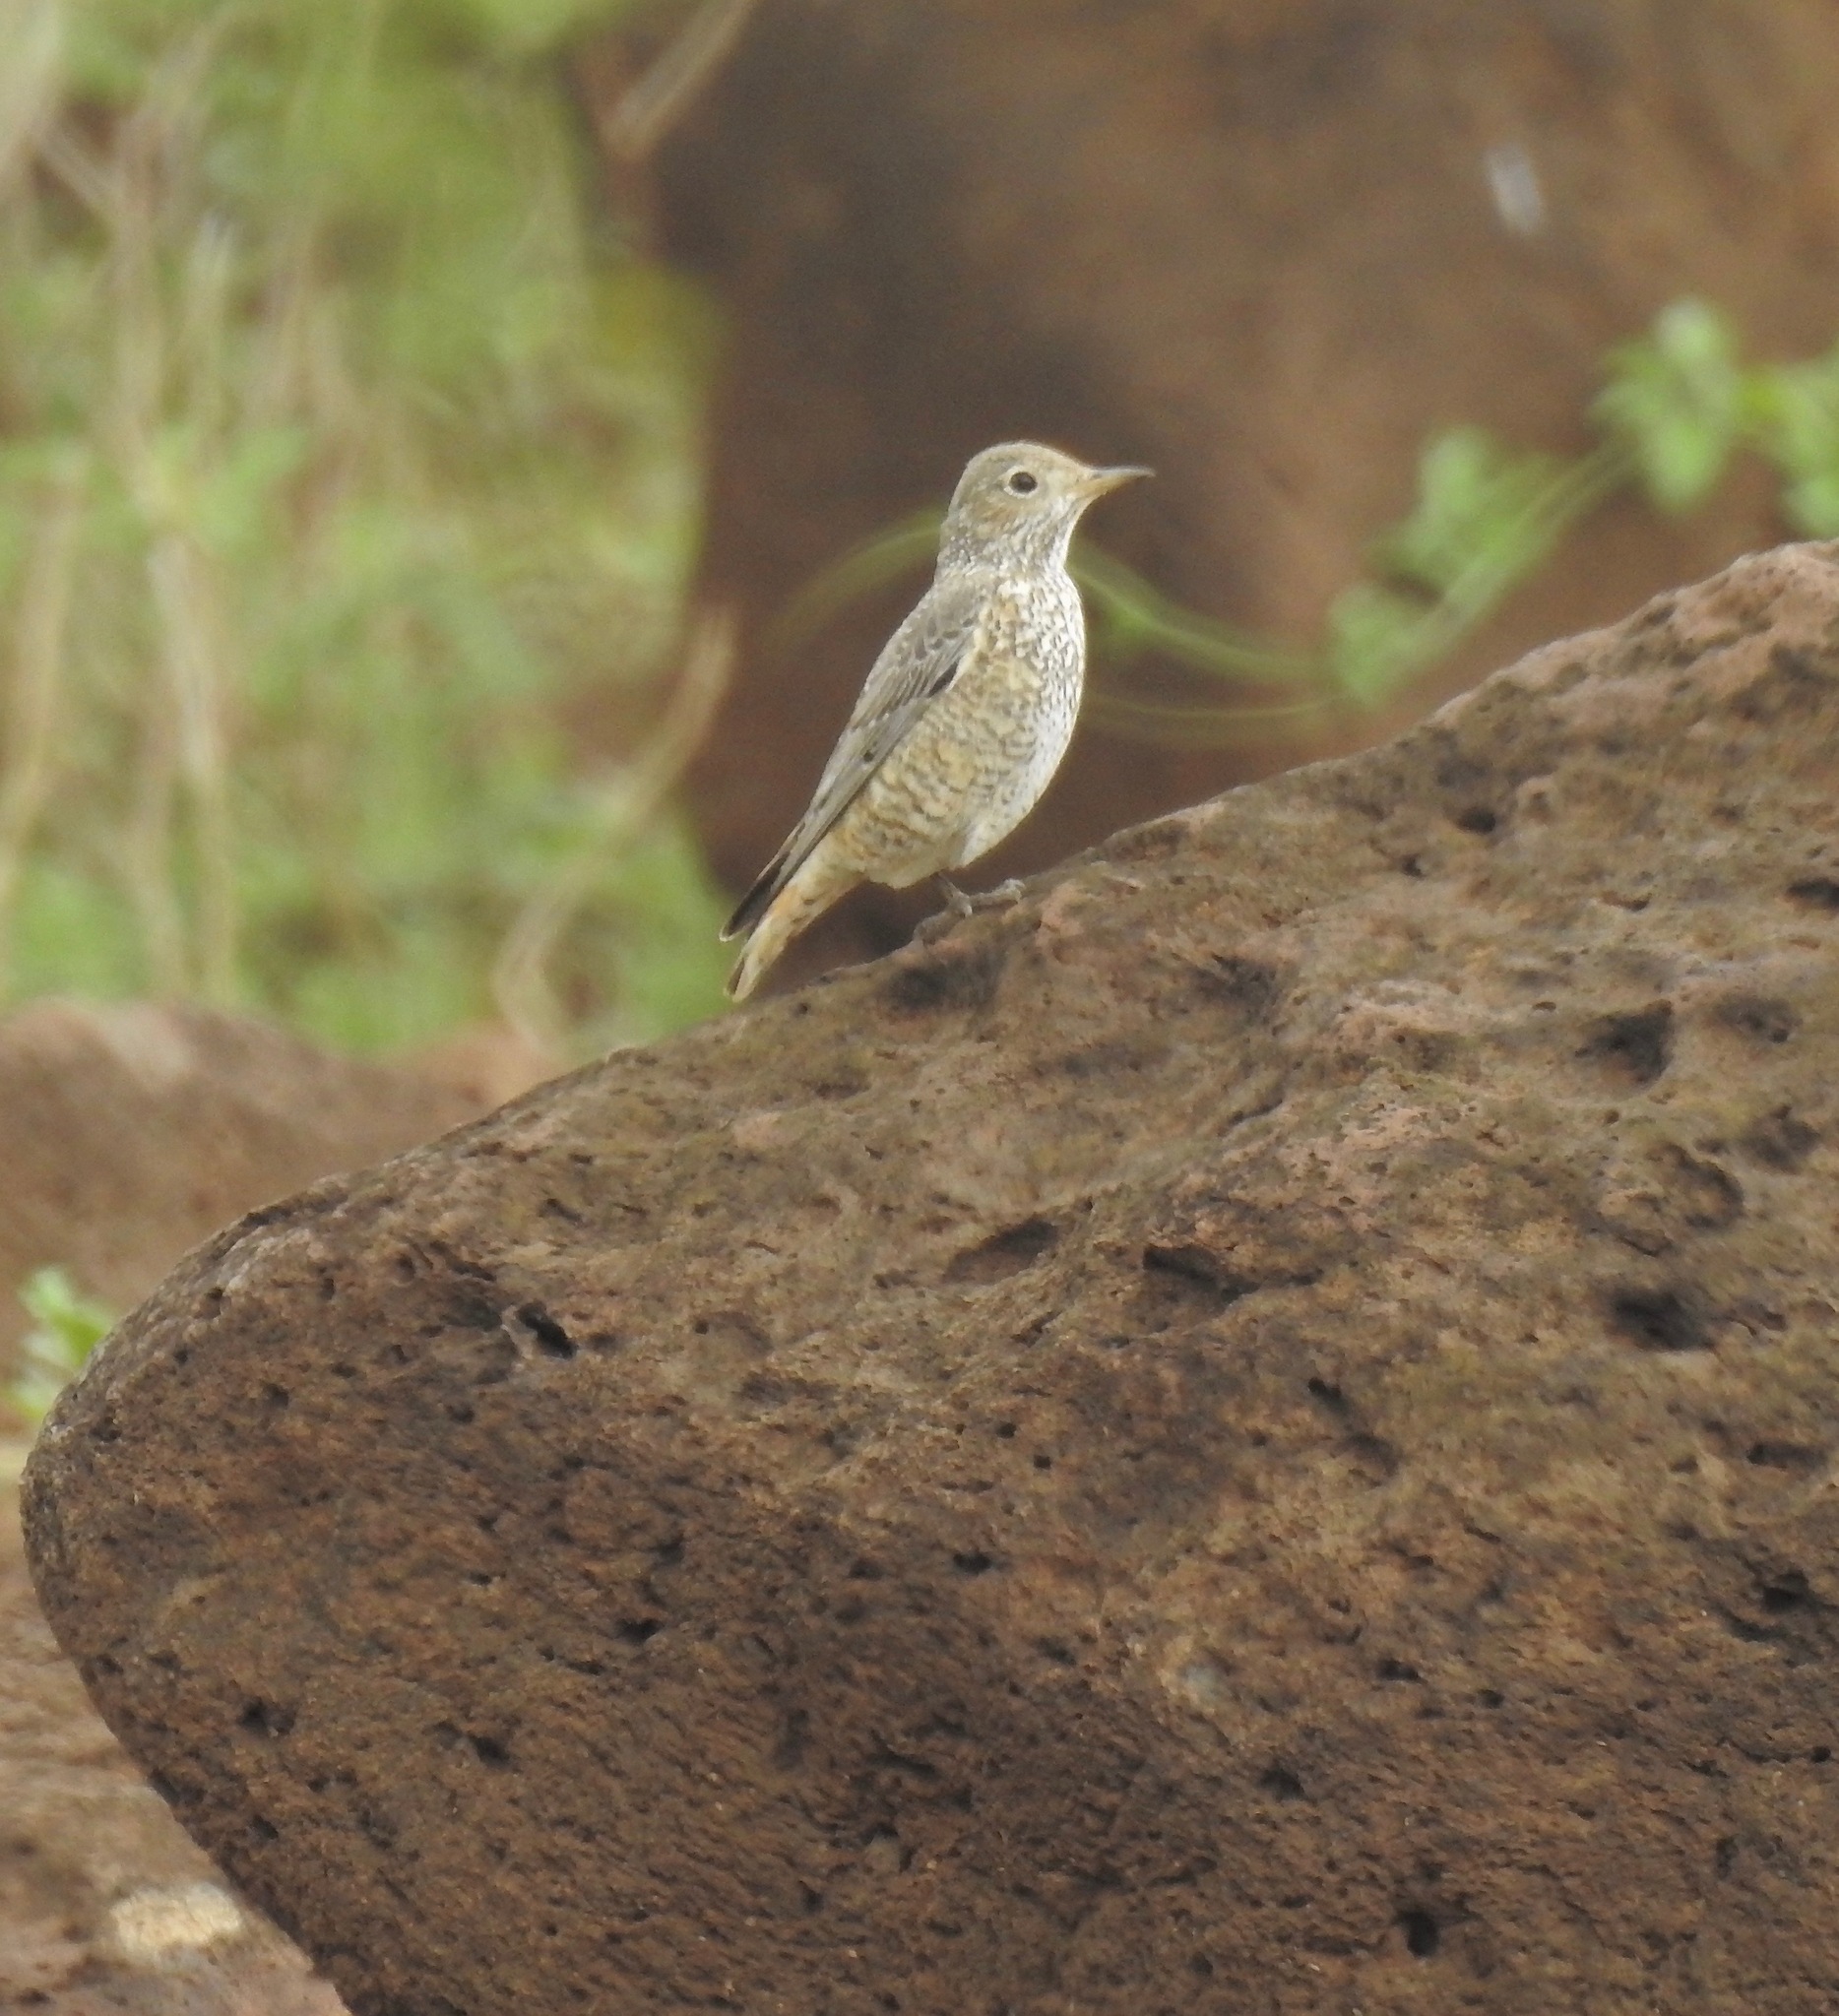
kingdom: Animalia
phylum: Chordata
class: Aves
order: Passeriformes
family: Muscicapidae
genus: Monticola
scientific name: Monticola saxatilis
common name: Rufous-tailed rock thrush
